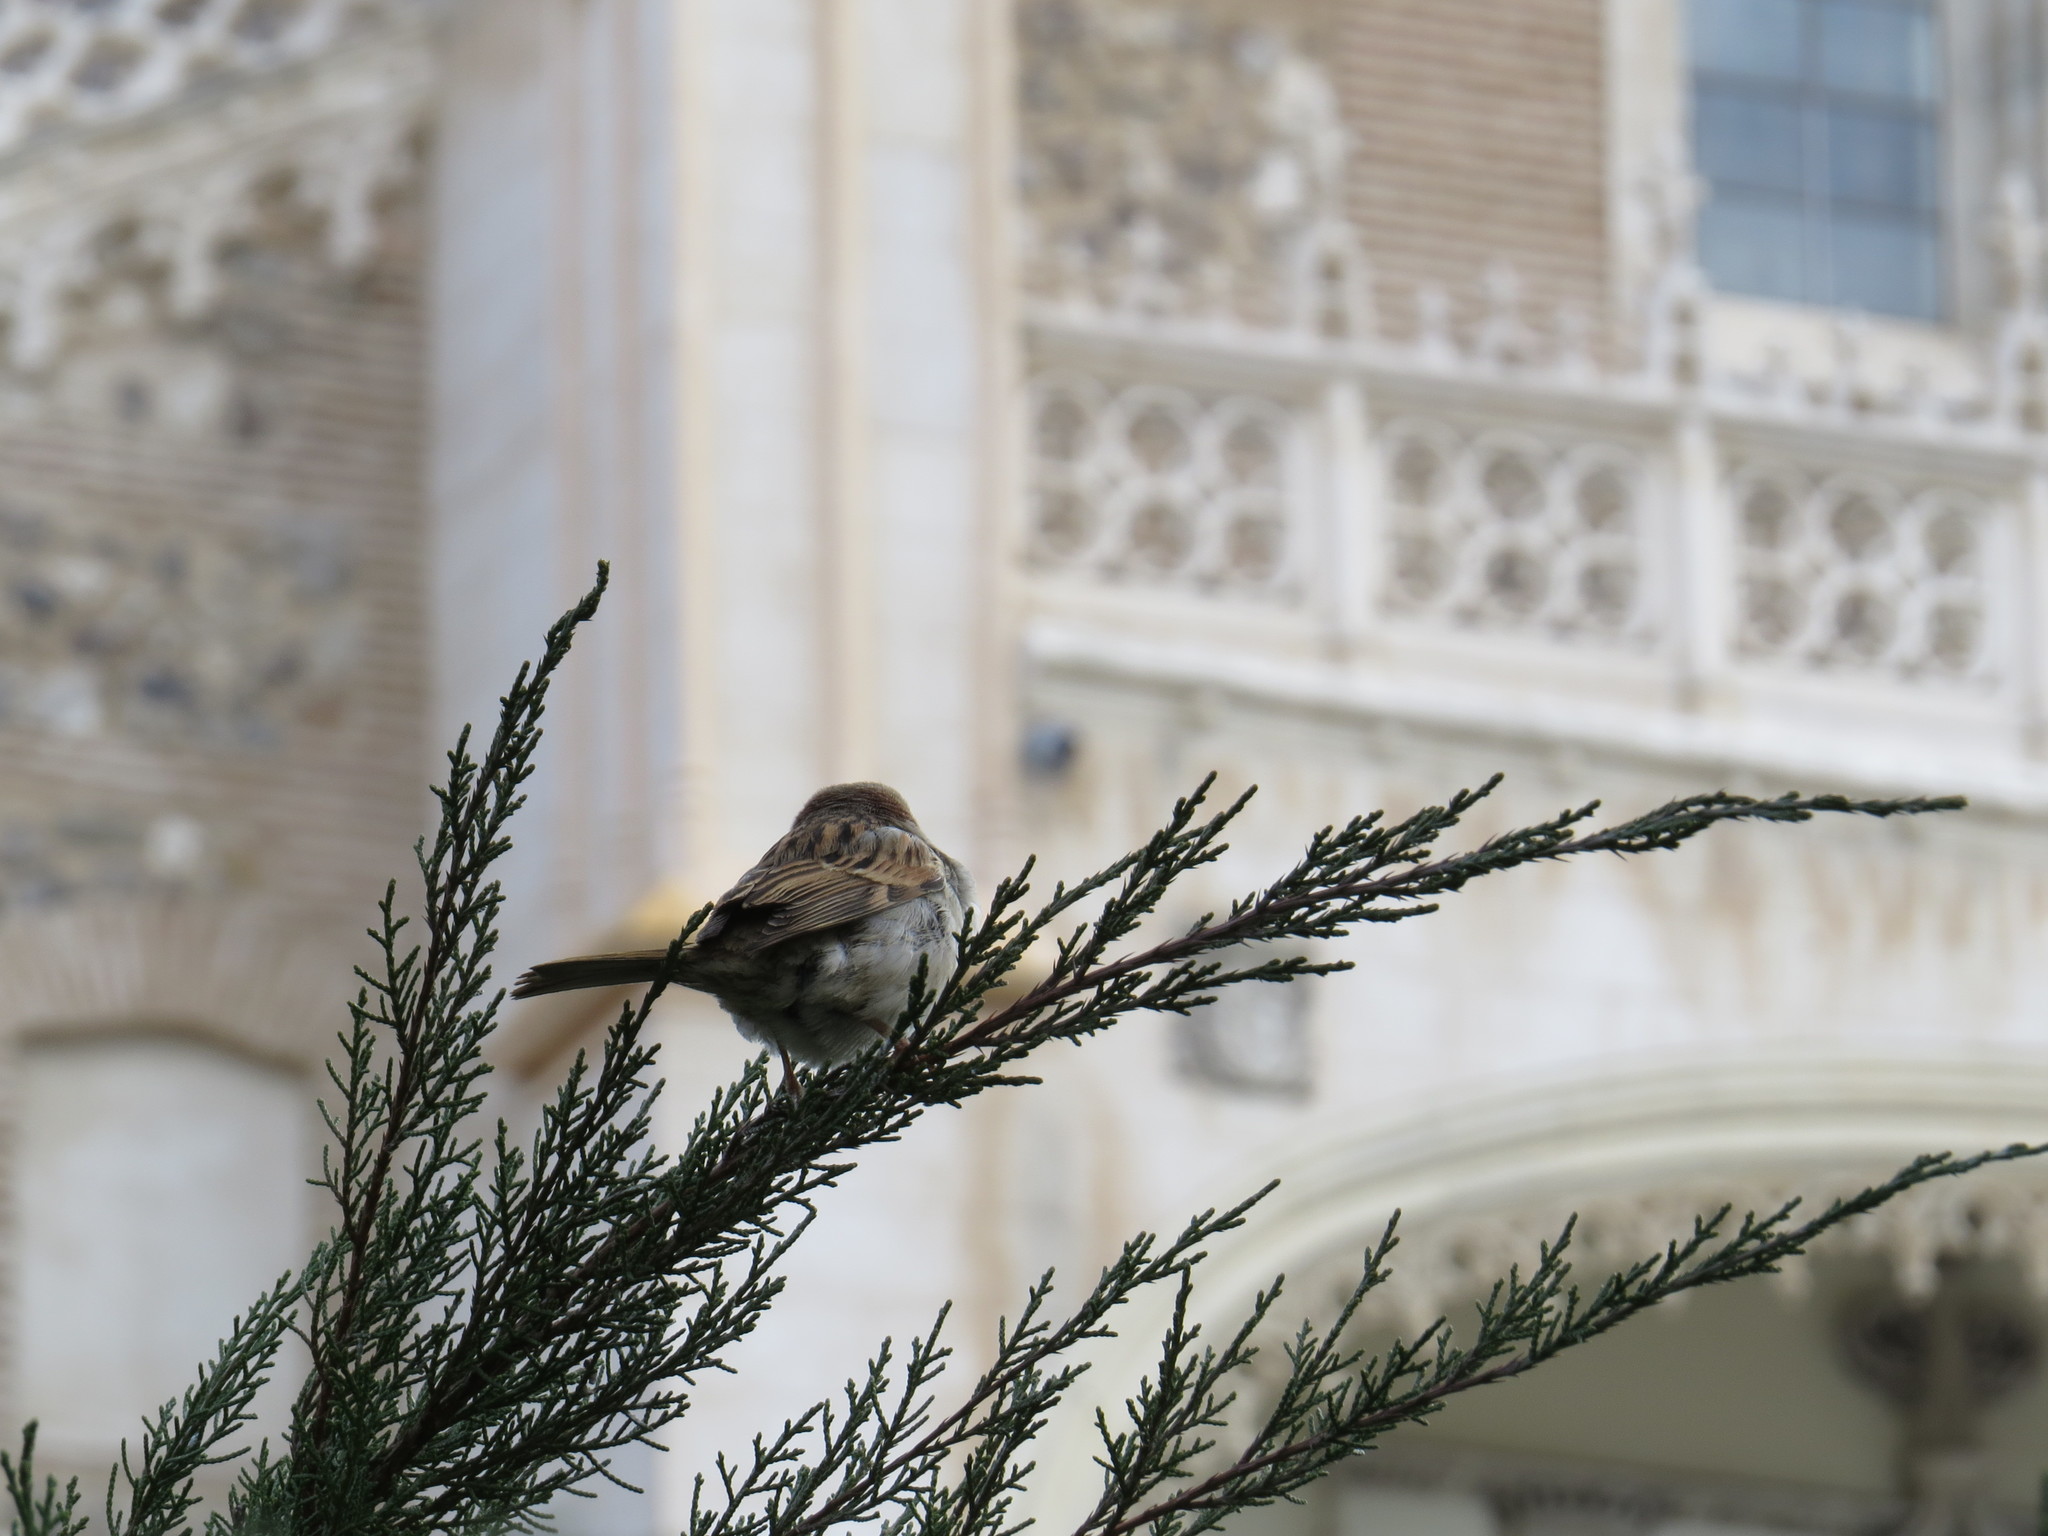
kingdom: Animalia
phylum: Chordata
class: Aves
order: Passeriformes
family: Passeridae
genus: Passer
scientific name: Passer domesticus
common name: House sparrow
